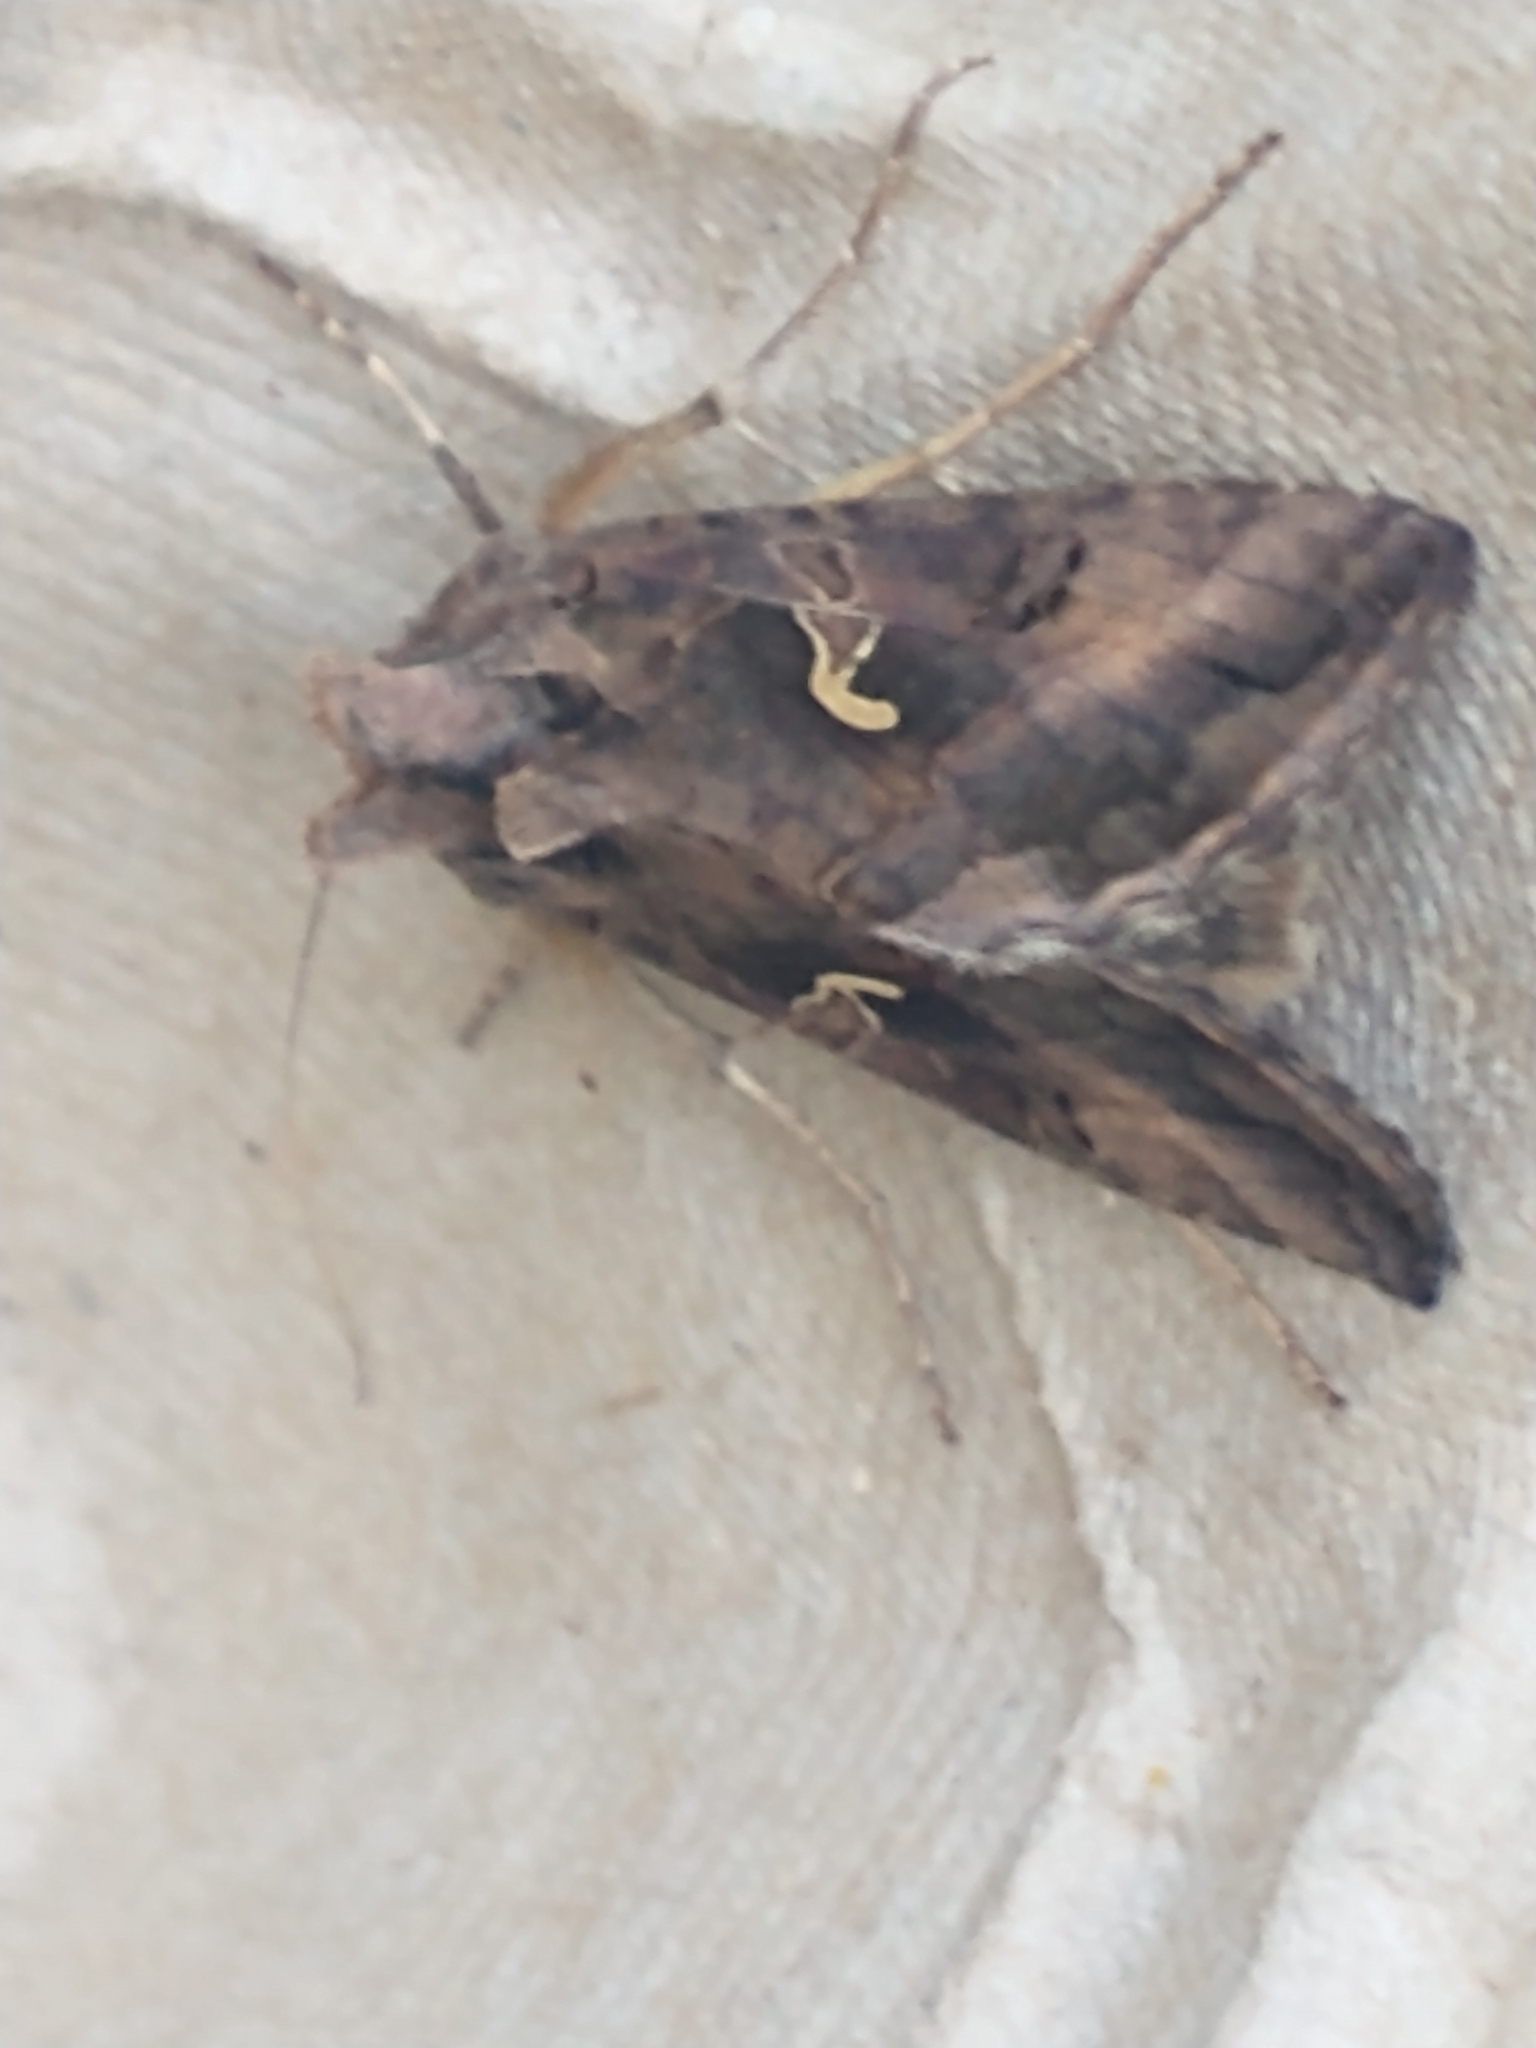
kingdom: Animalia
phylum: Arthropoda
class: Insecta
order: Lepidoptera
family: Noctuidae
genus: Autographa
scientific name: Autographa gamma
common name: Silver y
